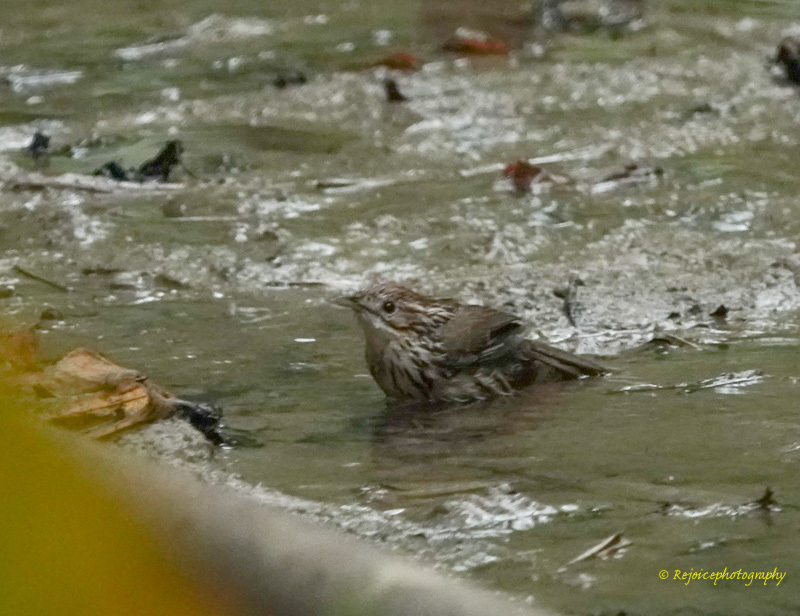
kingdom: Animalia
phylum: Chordata
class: Aves
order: Passeriformes
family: Pellorneidae
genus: Pellorneum
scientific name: Pellorneum ruficeps
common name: Puff-throated babbler
